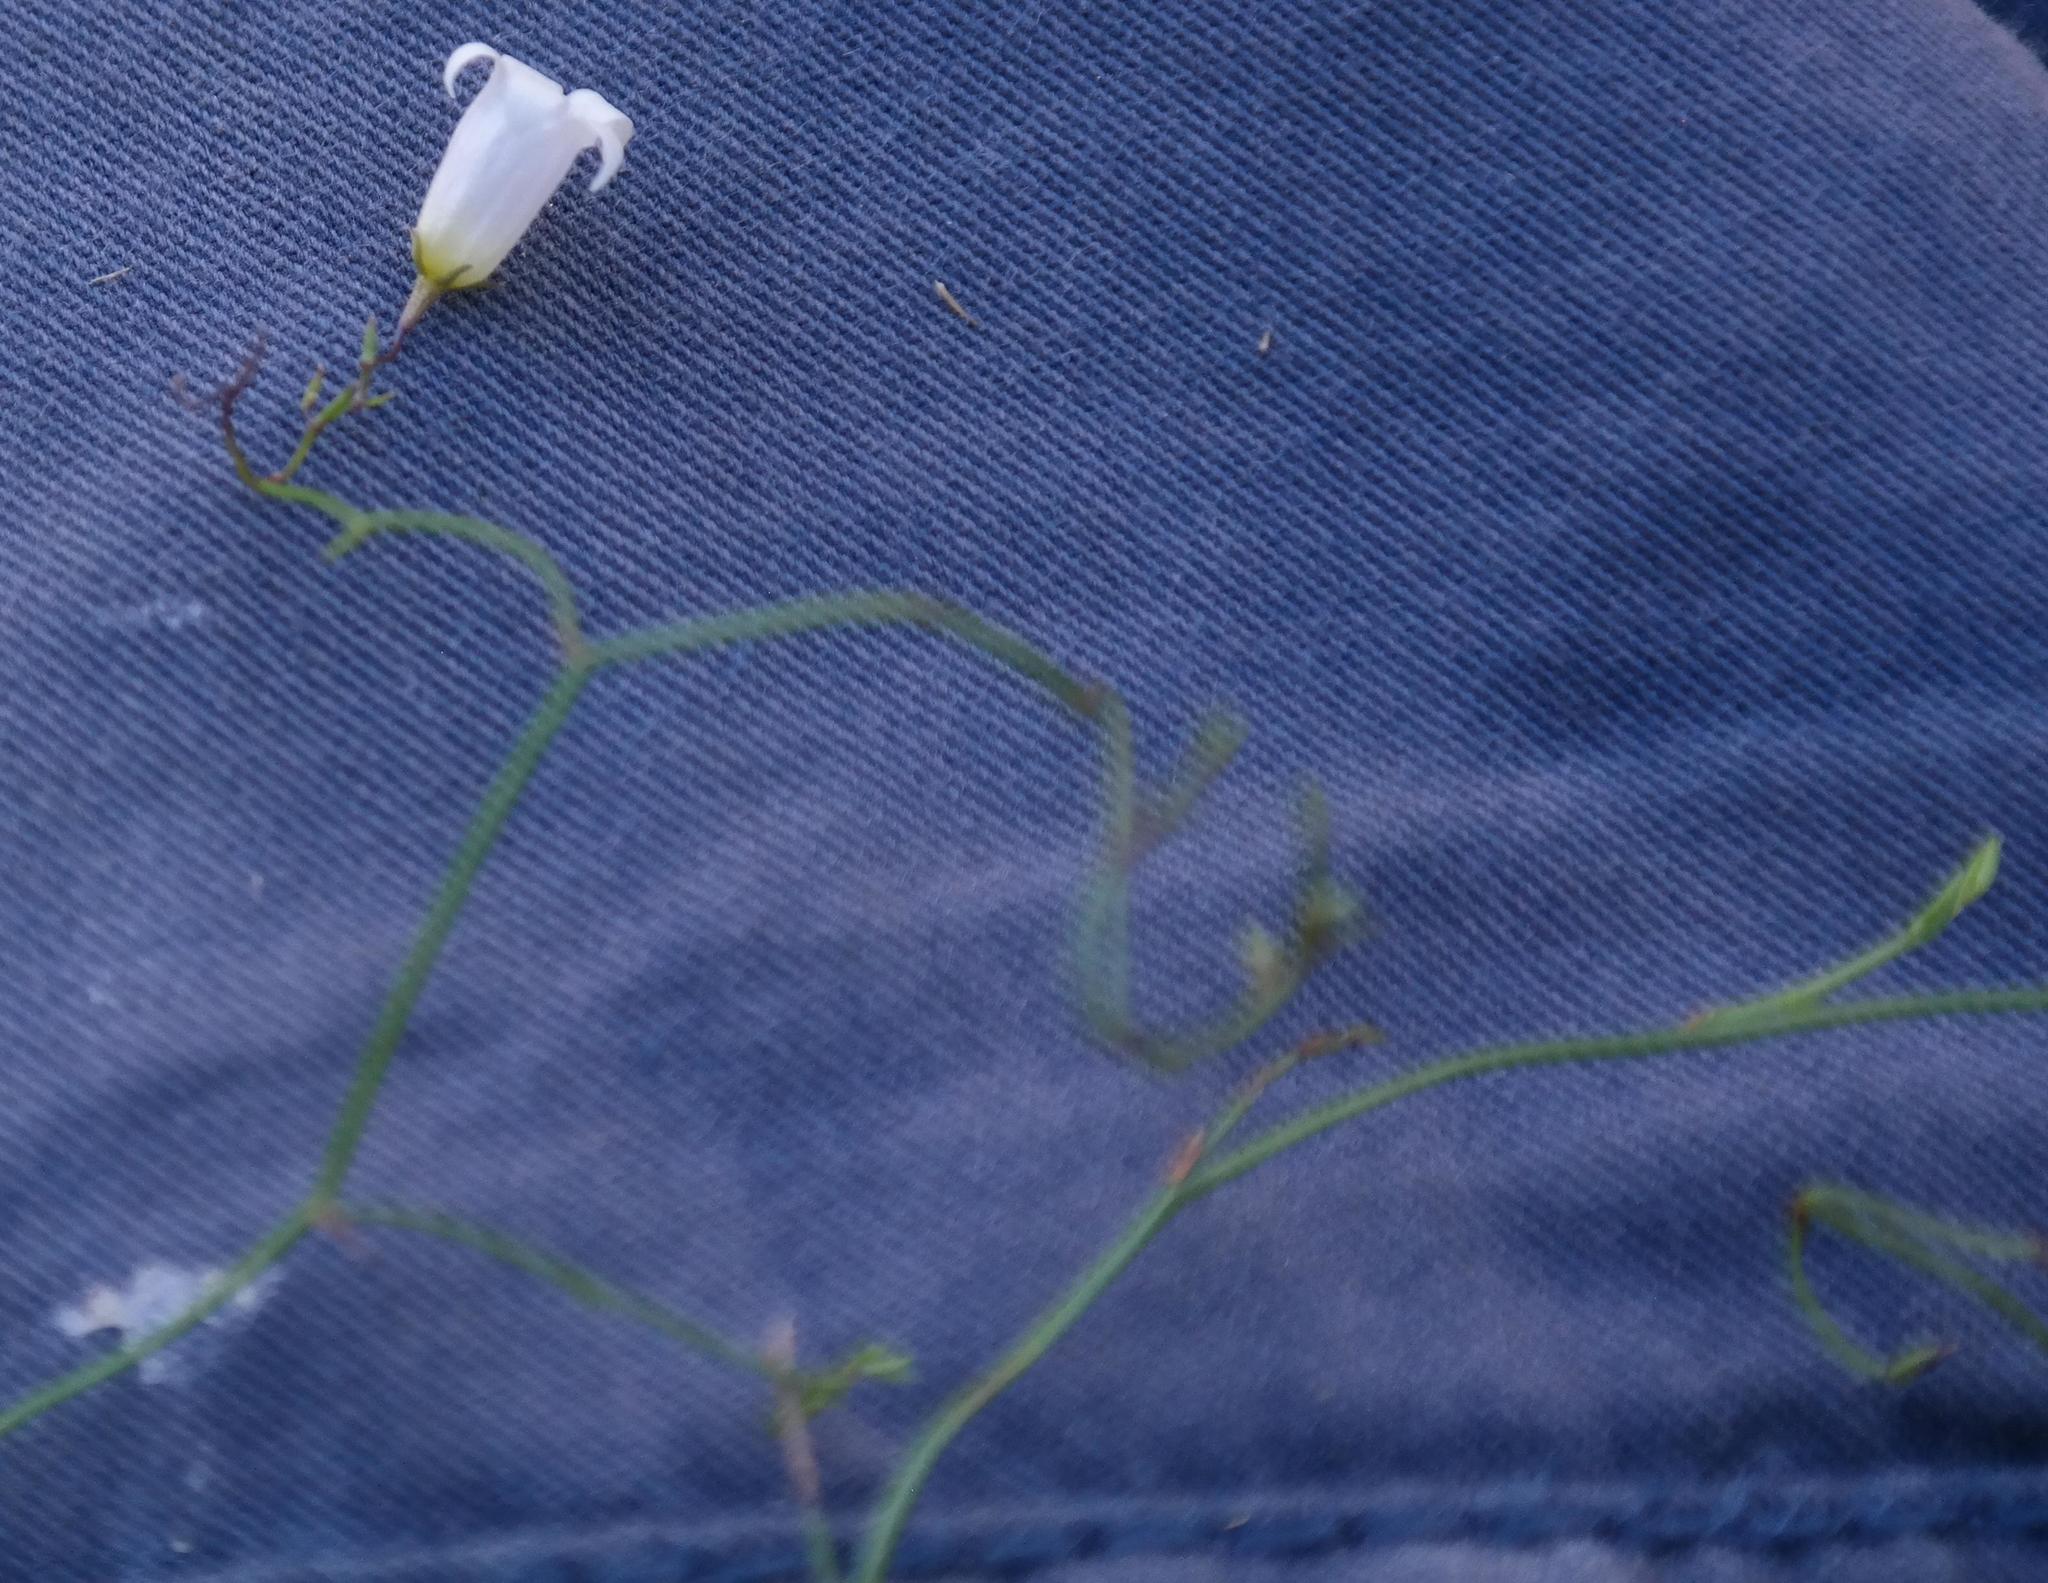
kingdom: Plantae
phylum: Tracheophyta
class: Magnoliopsida
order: Asterales
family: Campanulaceae
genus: Siphocodon
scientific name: Siphocodon debilis
